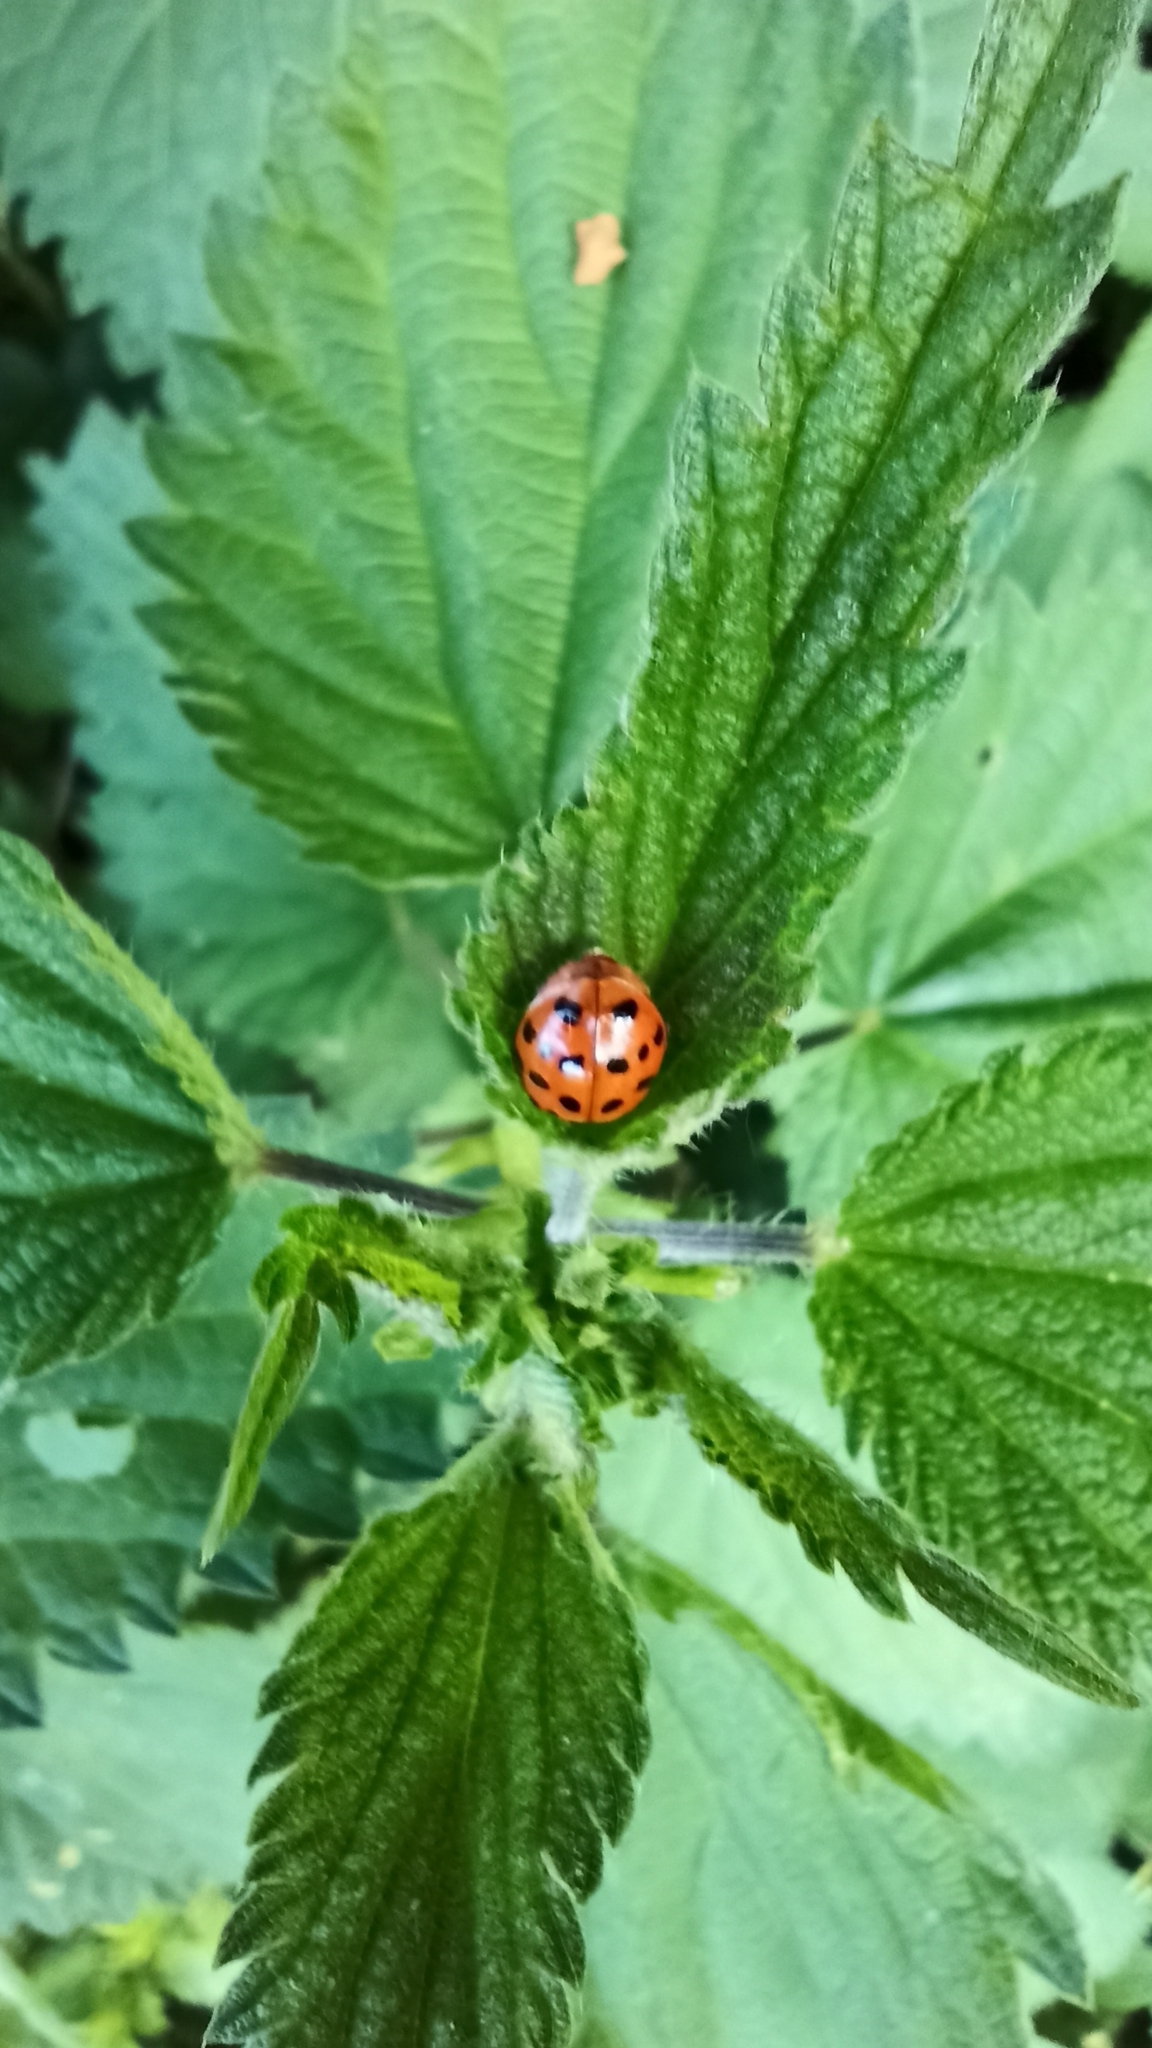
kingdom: Animalia
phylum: Arthropoda
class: Insecta
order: Coleoptera
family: Coccinellidae
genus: Harmonia
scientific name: Harmonia axyridis
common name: Harlequin ladybird
